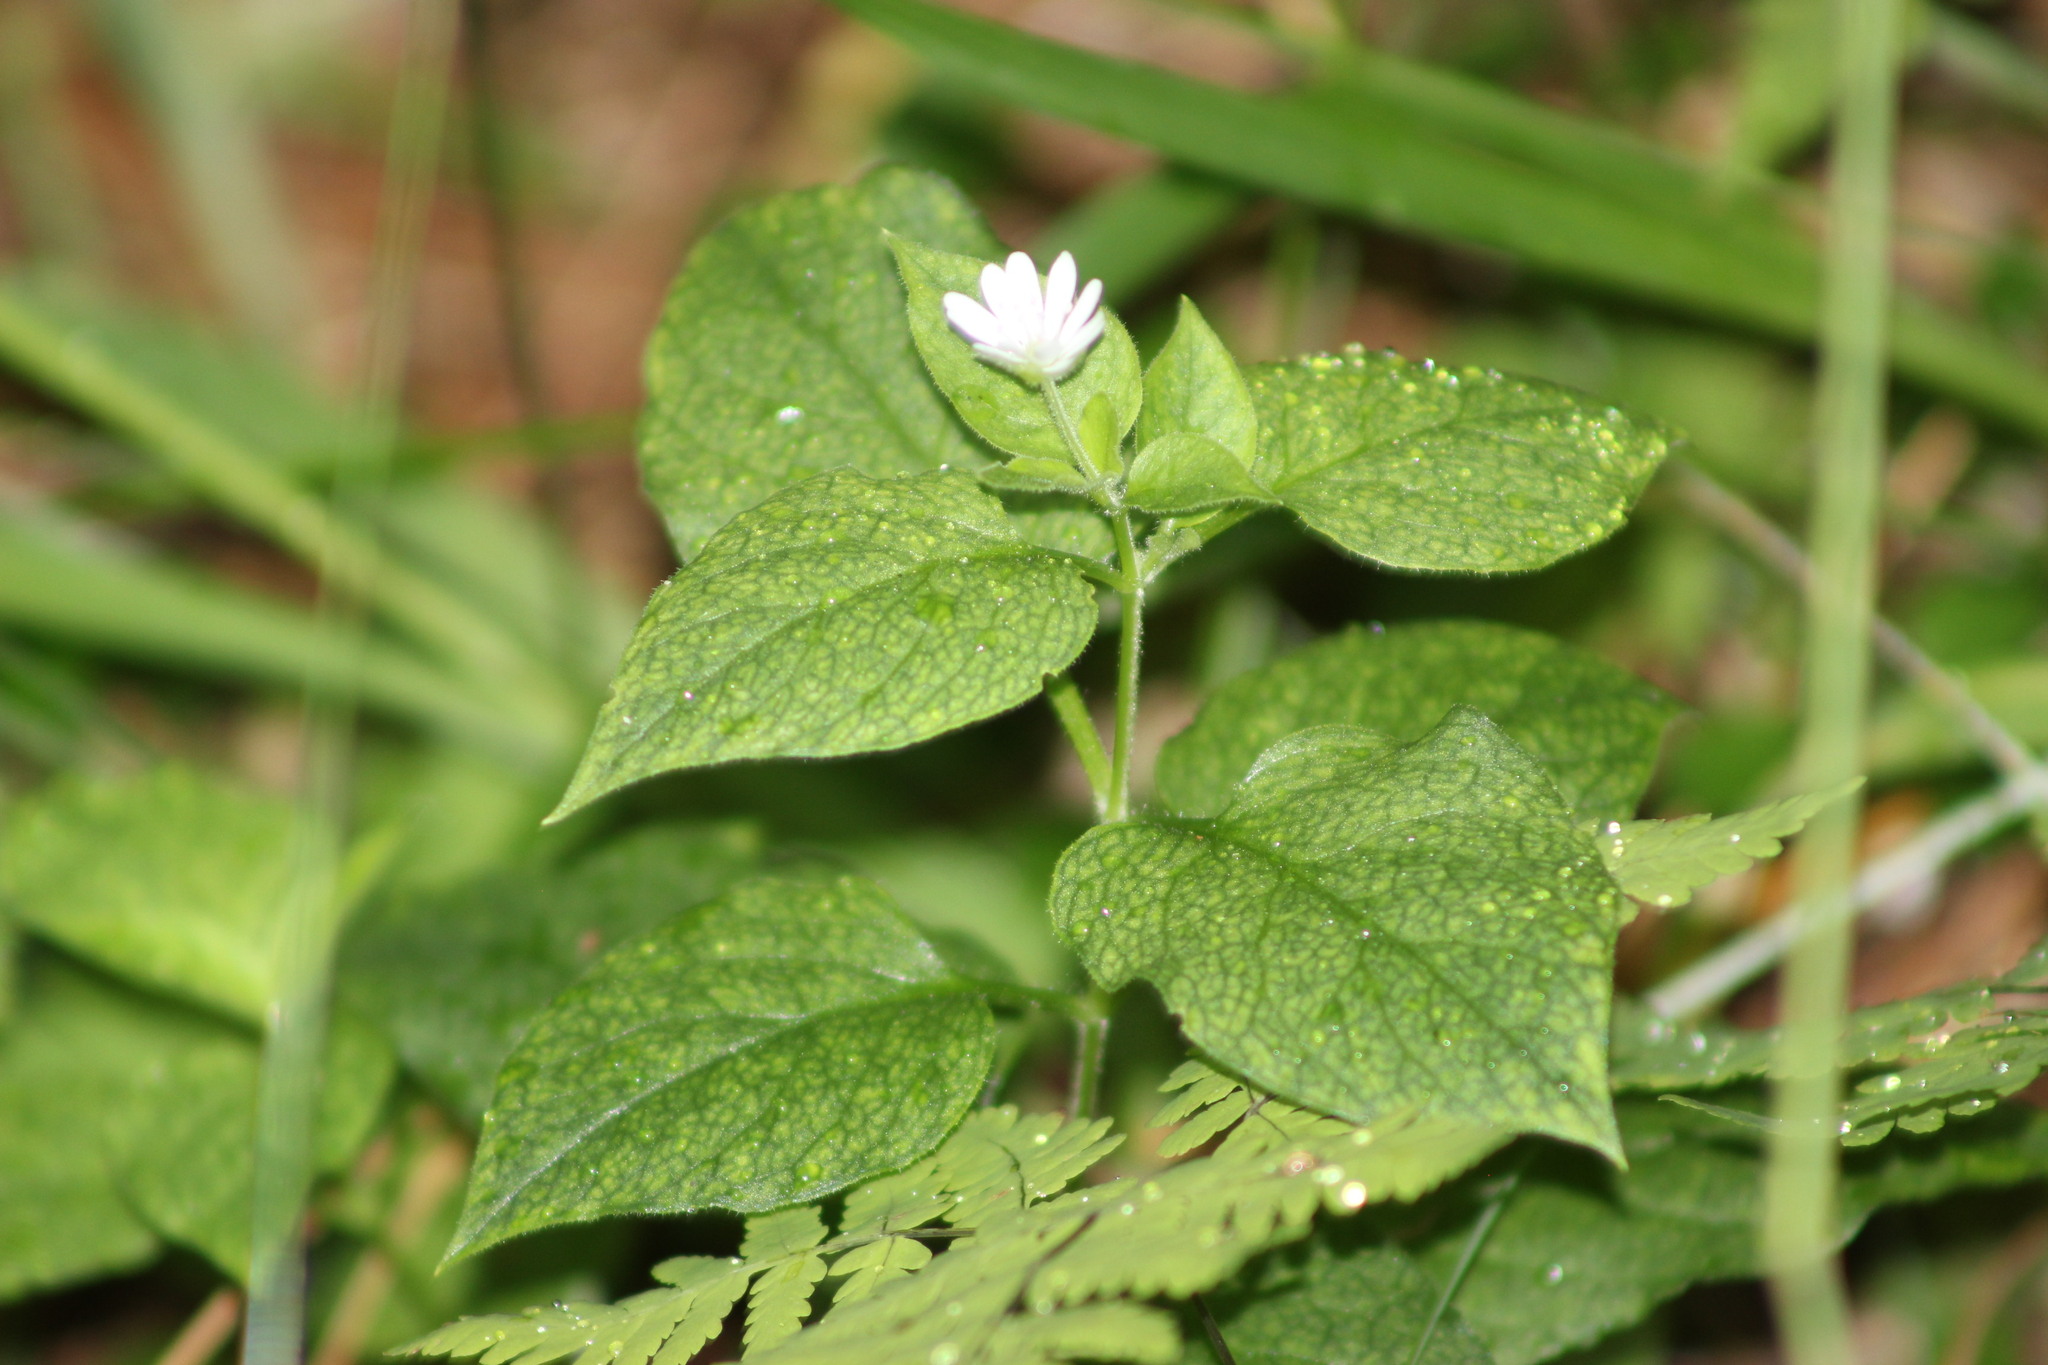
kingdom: Plantae
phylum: Tracheophyta
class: Magnoliopsida
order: Caryophyllales
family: Caryophyllaceae
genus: Stellaria
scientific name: Stellaria bungeana
